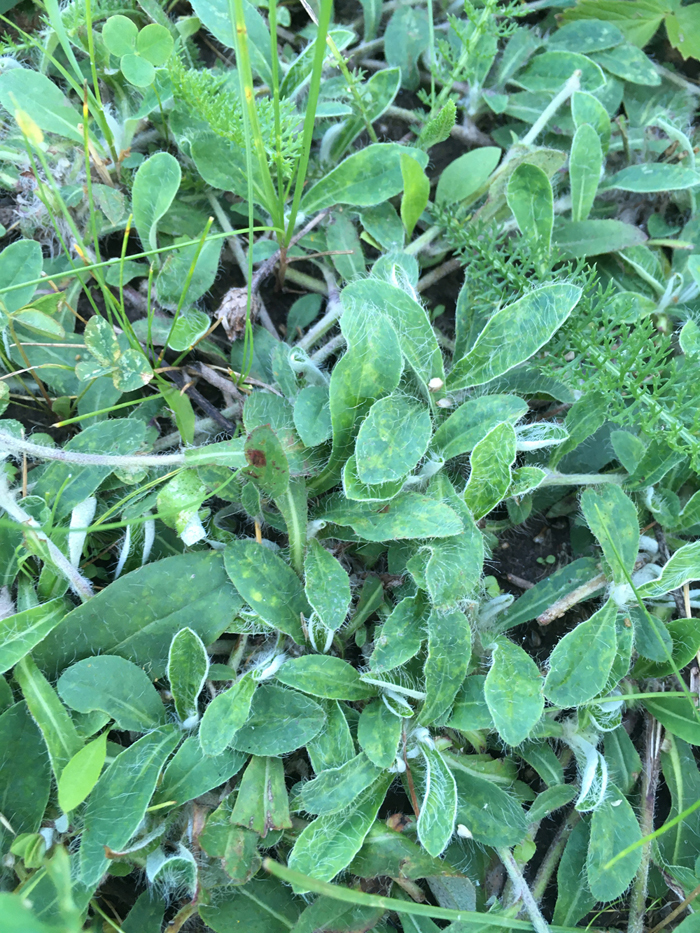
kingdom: Plantae
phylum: Tracheophyta
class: Magnoliopsida
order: Asterales
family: Asteraceae
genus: Pilosella
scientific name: Pilosella officinarum
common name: Mouse-ear hawkweed
